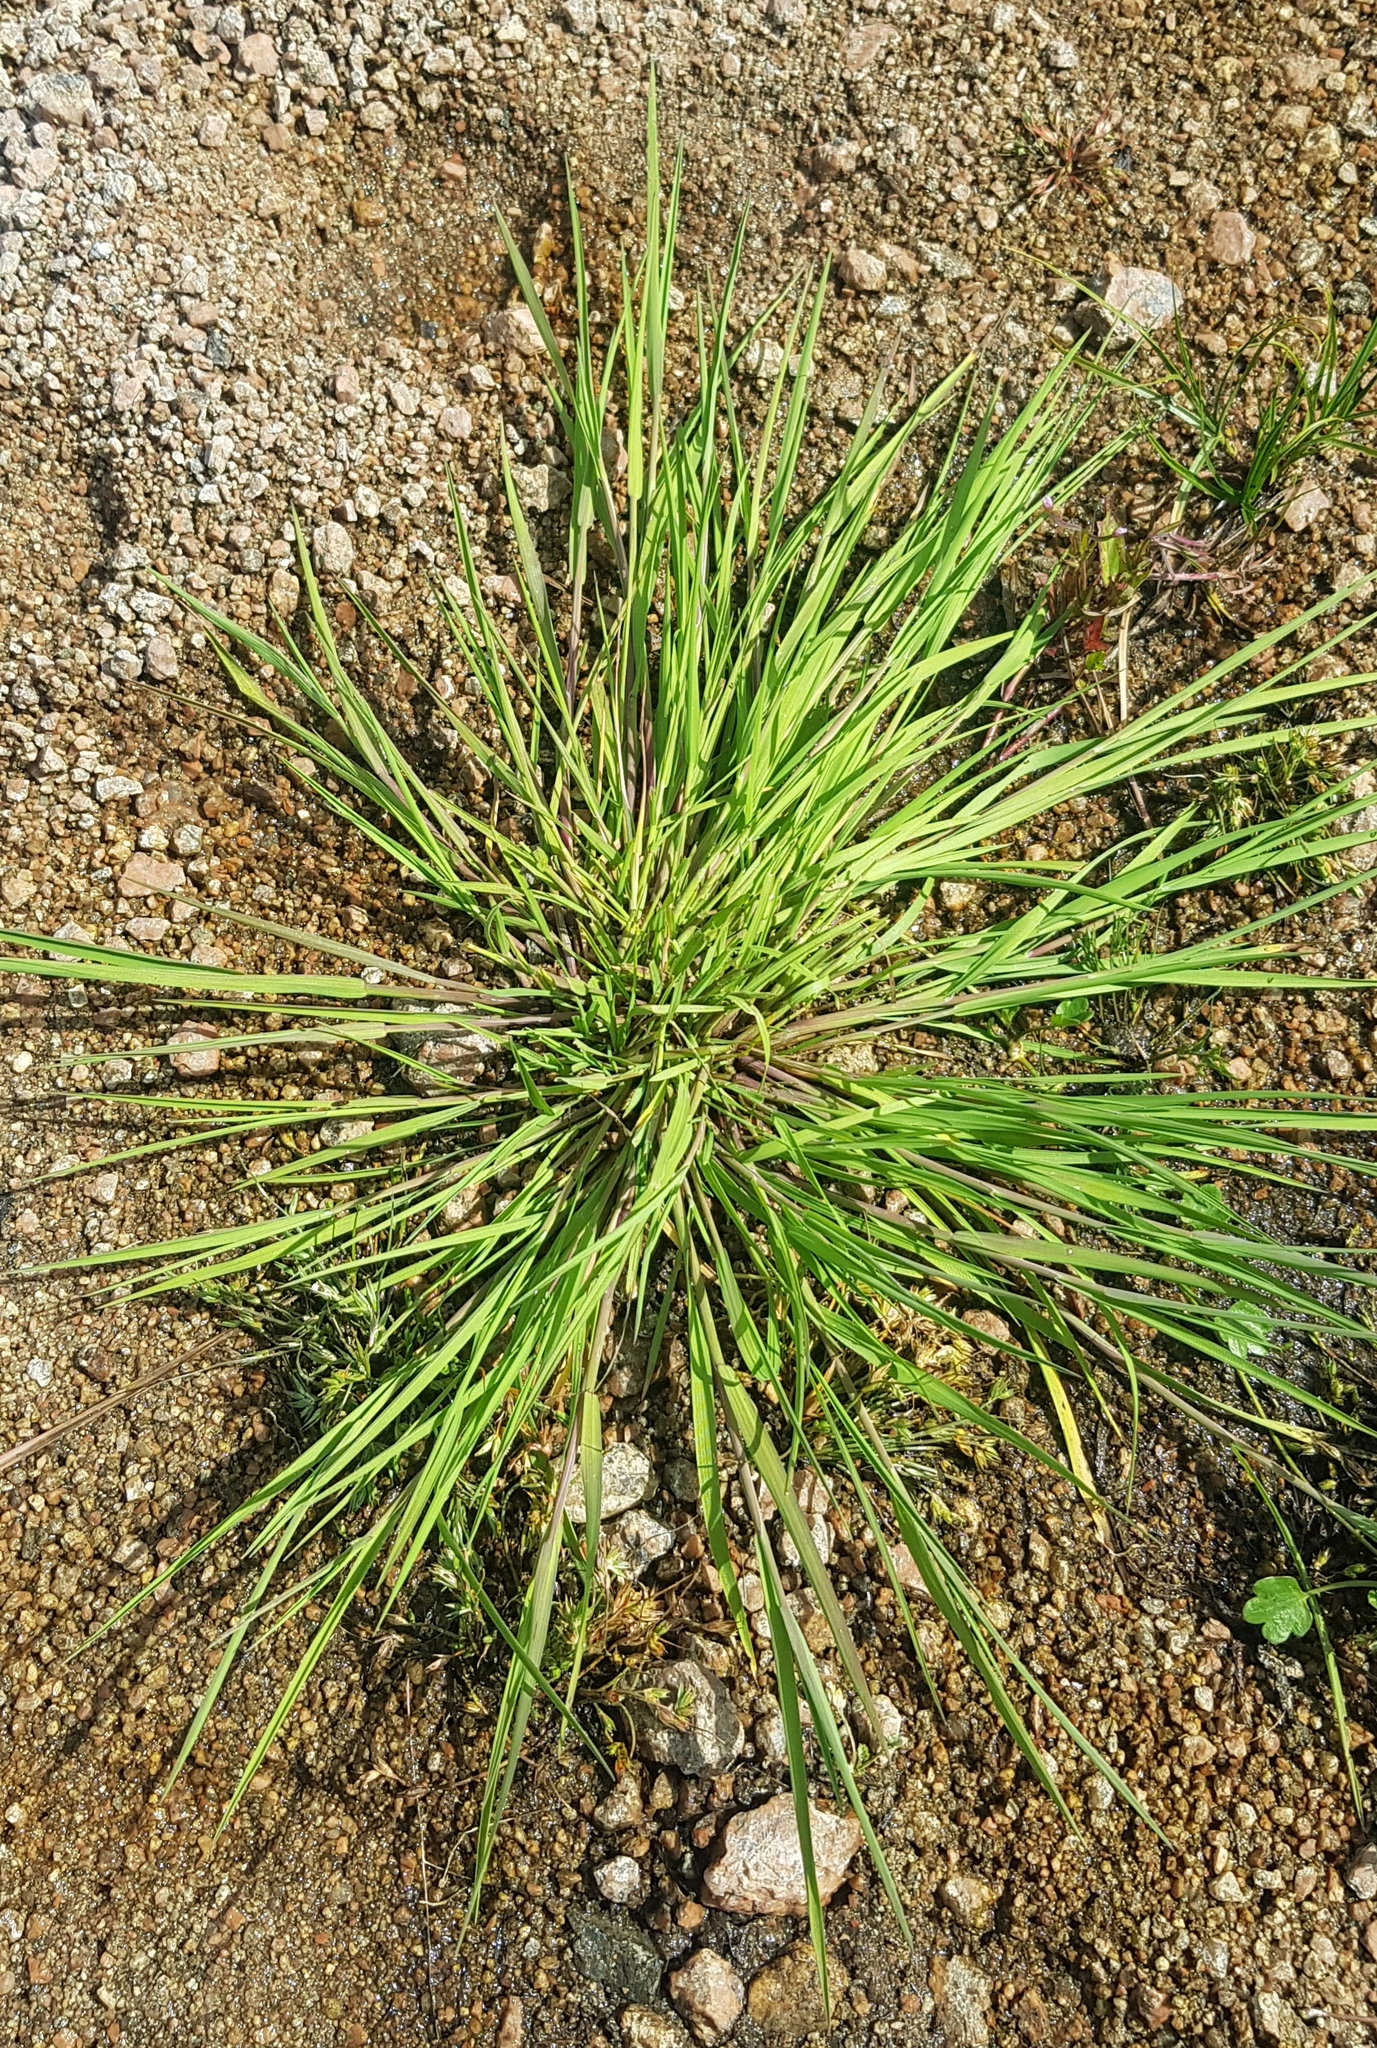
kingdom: Plantae
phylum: Tracheophyta
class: Liliopsida
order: Poales
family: Poaceae
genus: Cleistogenes
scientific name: Cleistogenes squarrosa
